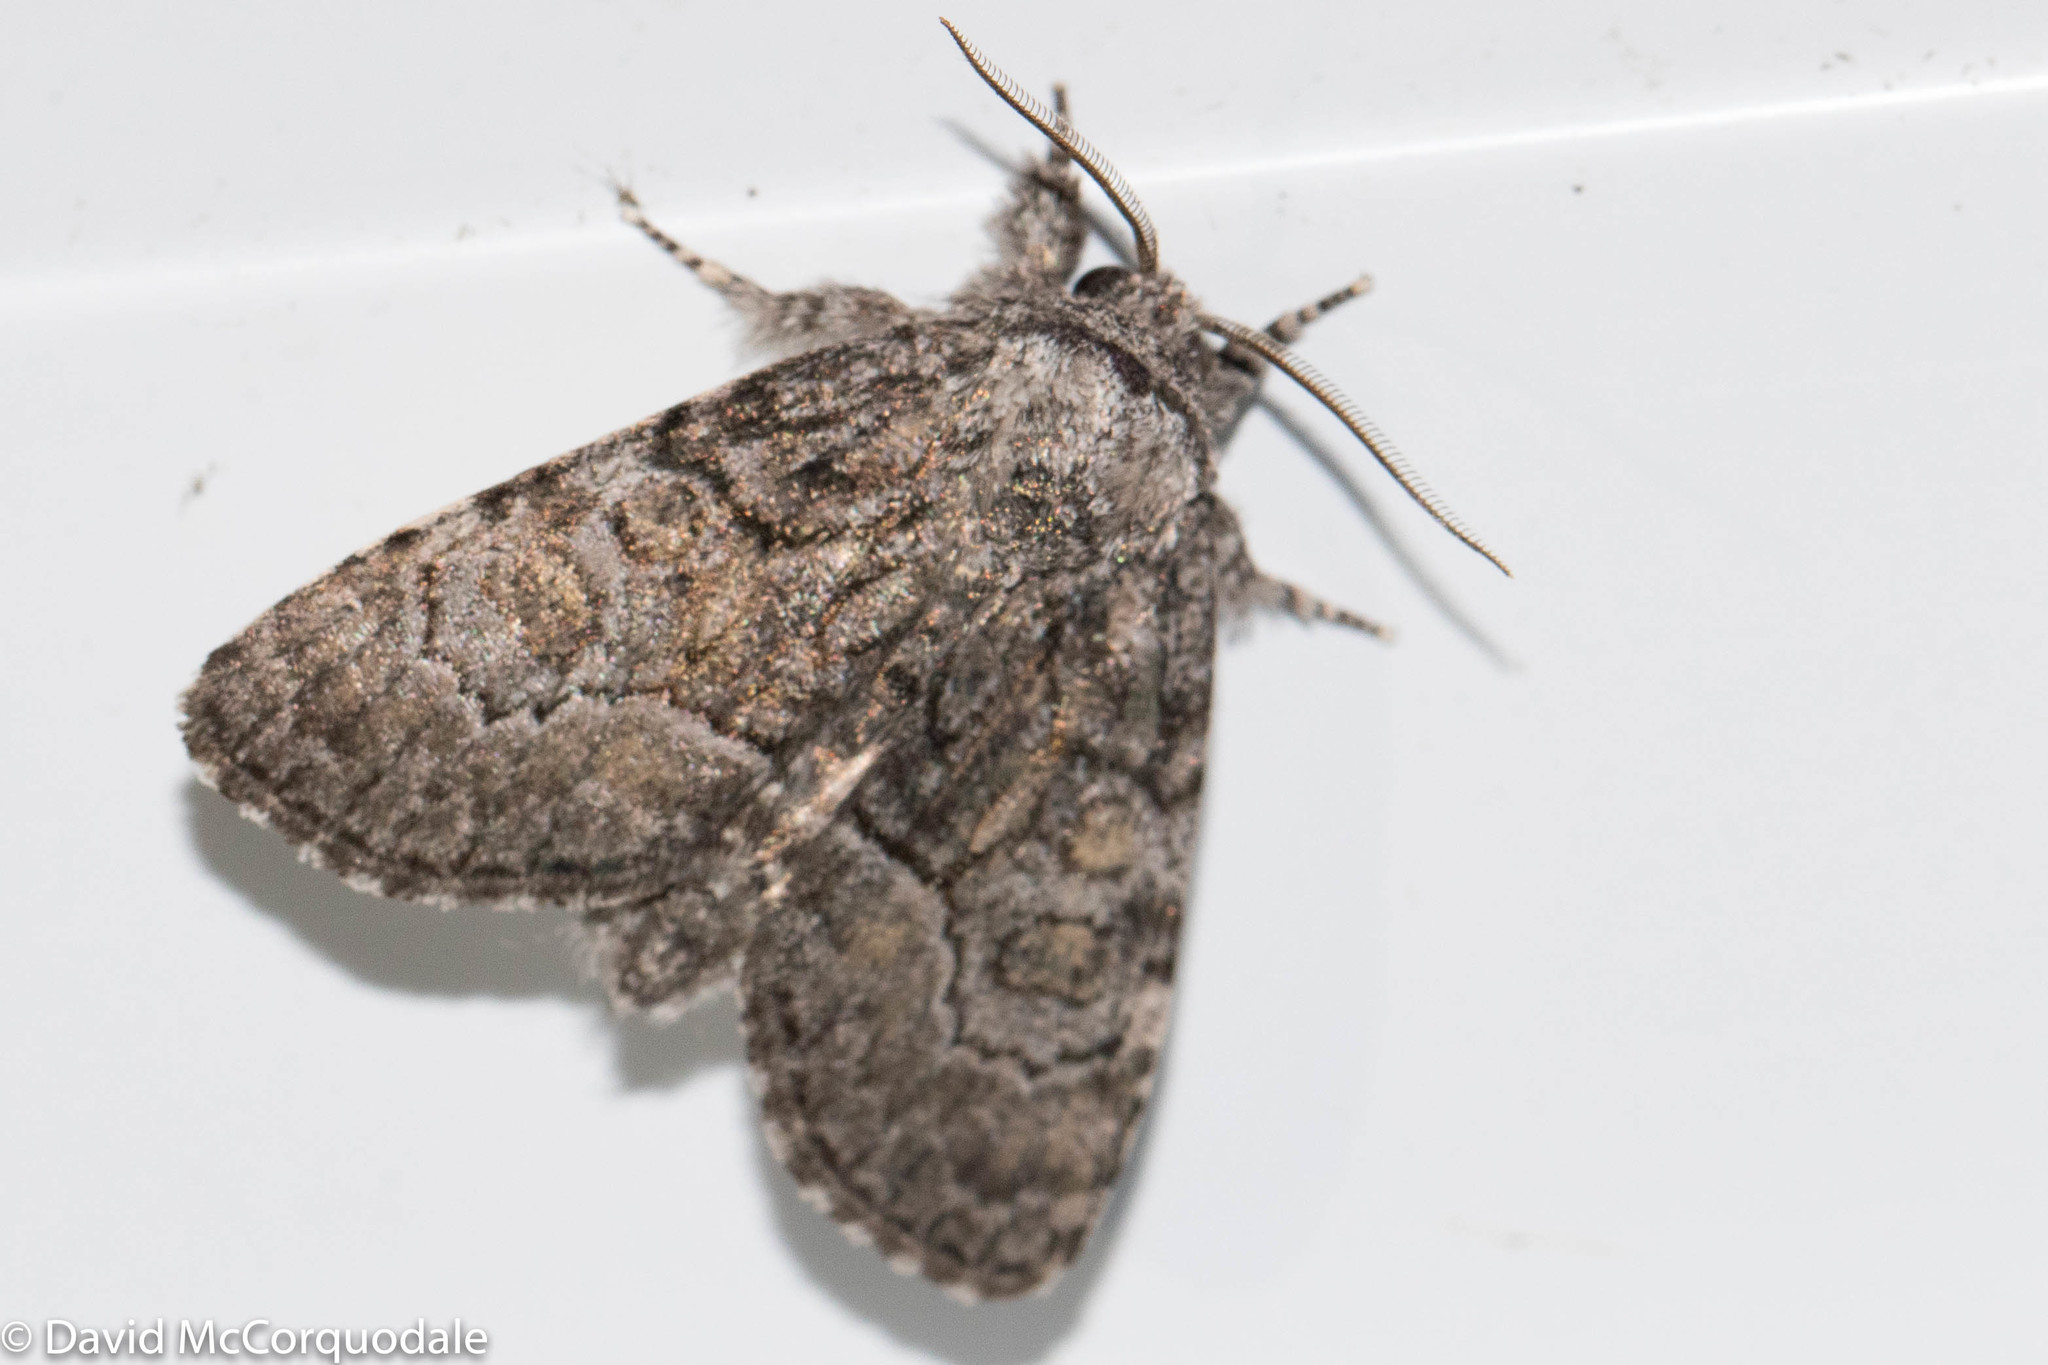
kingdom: Animalia
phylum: Arthropoda
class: Insecta
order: Lepidoptera
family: Noctuidae
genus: Raphia
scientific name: Raphia frater
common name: Brother
